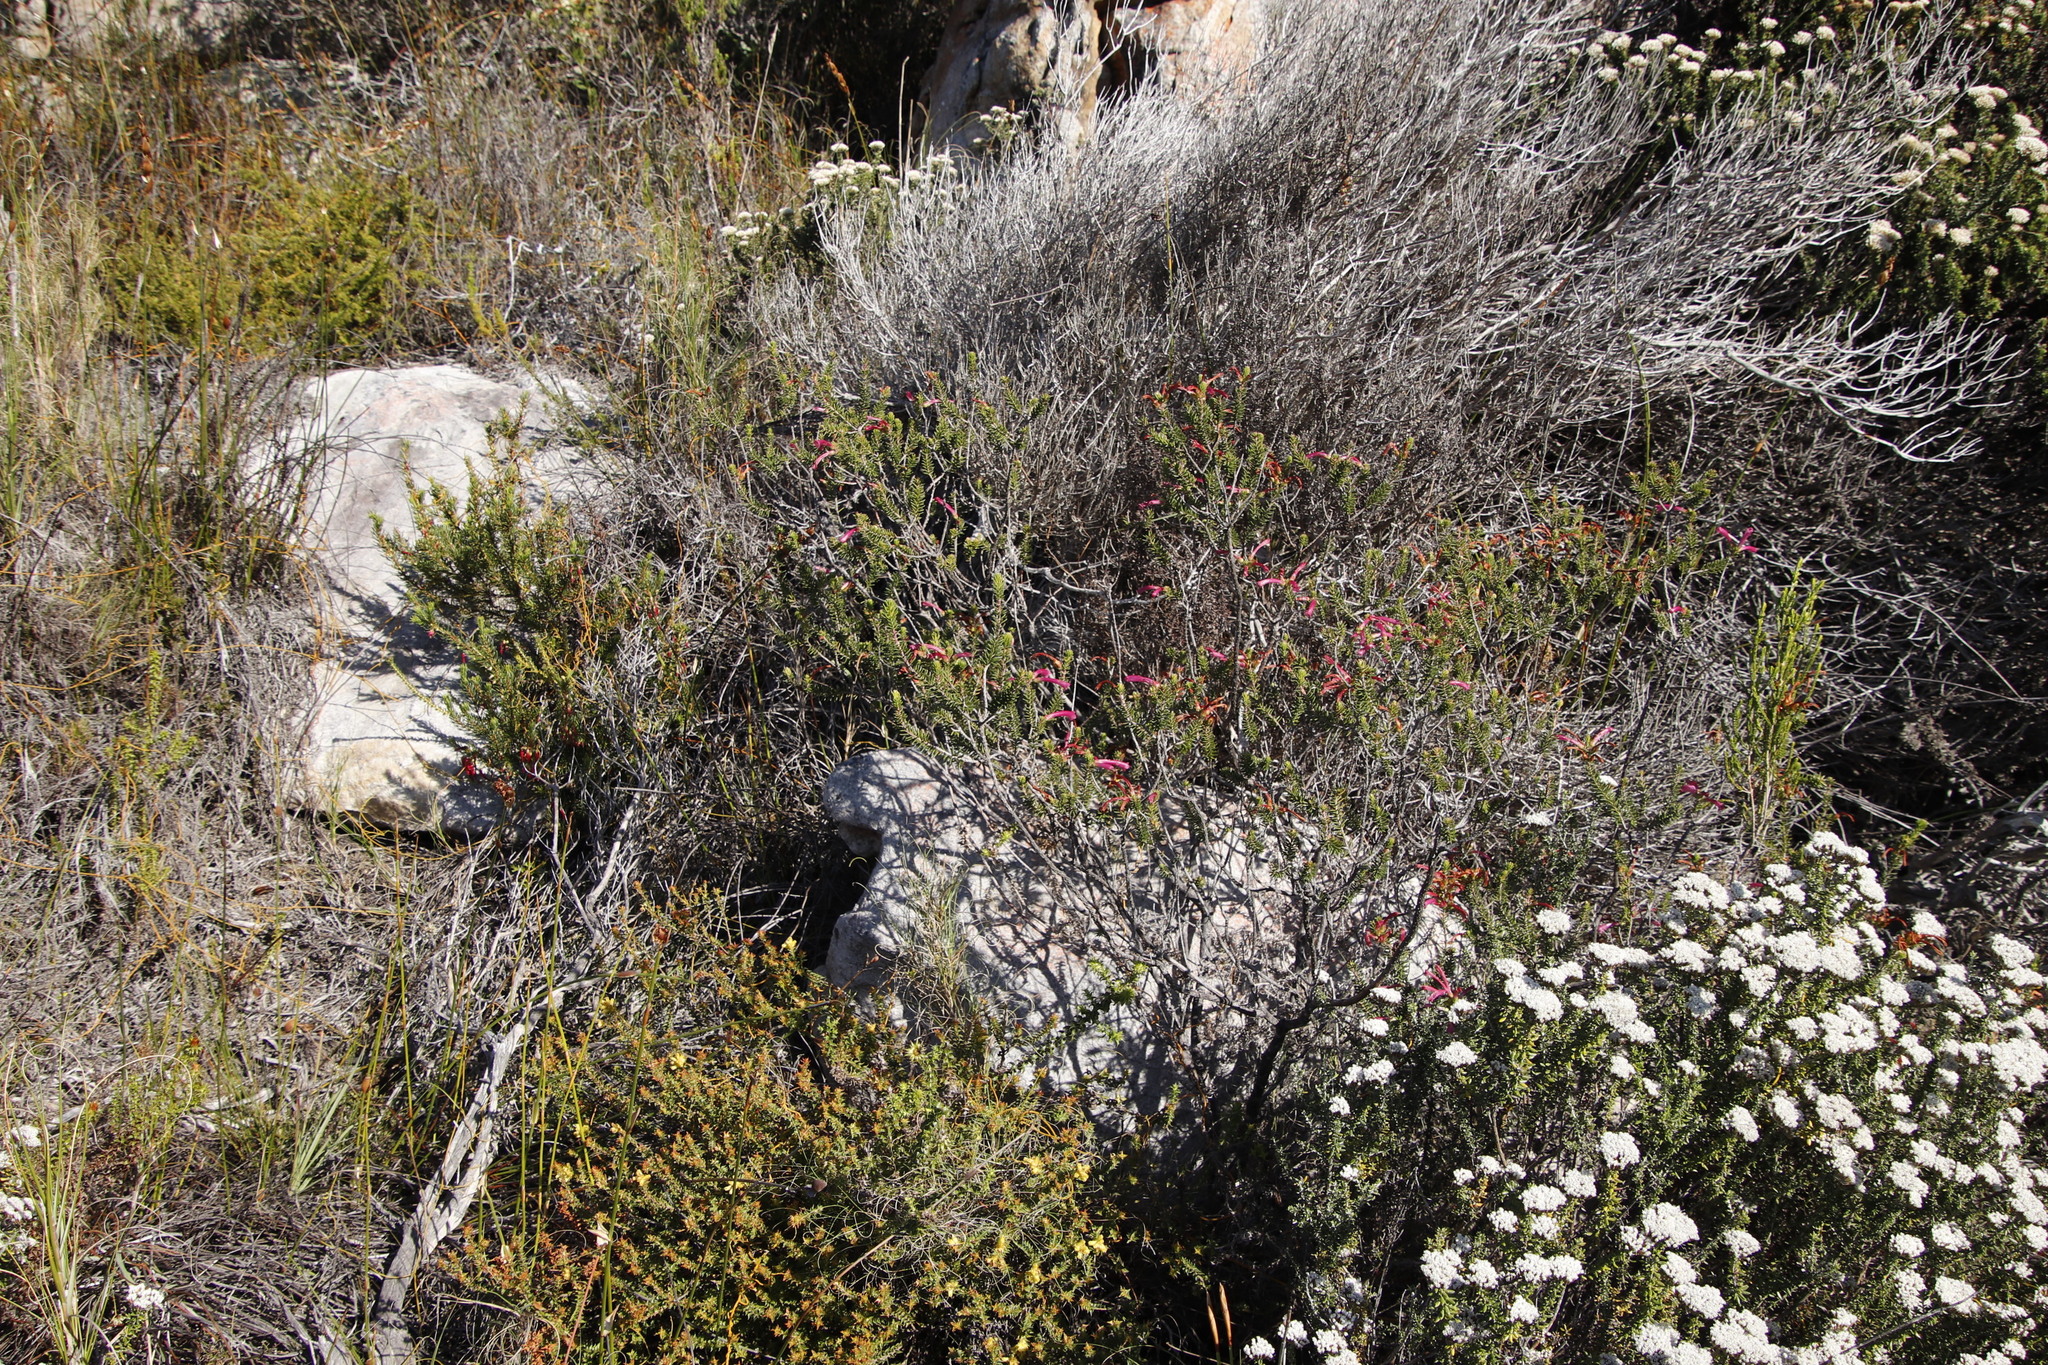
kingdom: Plantae
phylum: Tracheophyta
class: Magnoliopsida
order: Ericales
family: Ericaceae
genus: Erica
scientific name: Erica abietina
